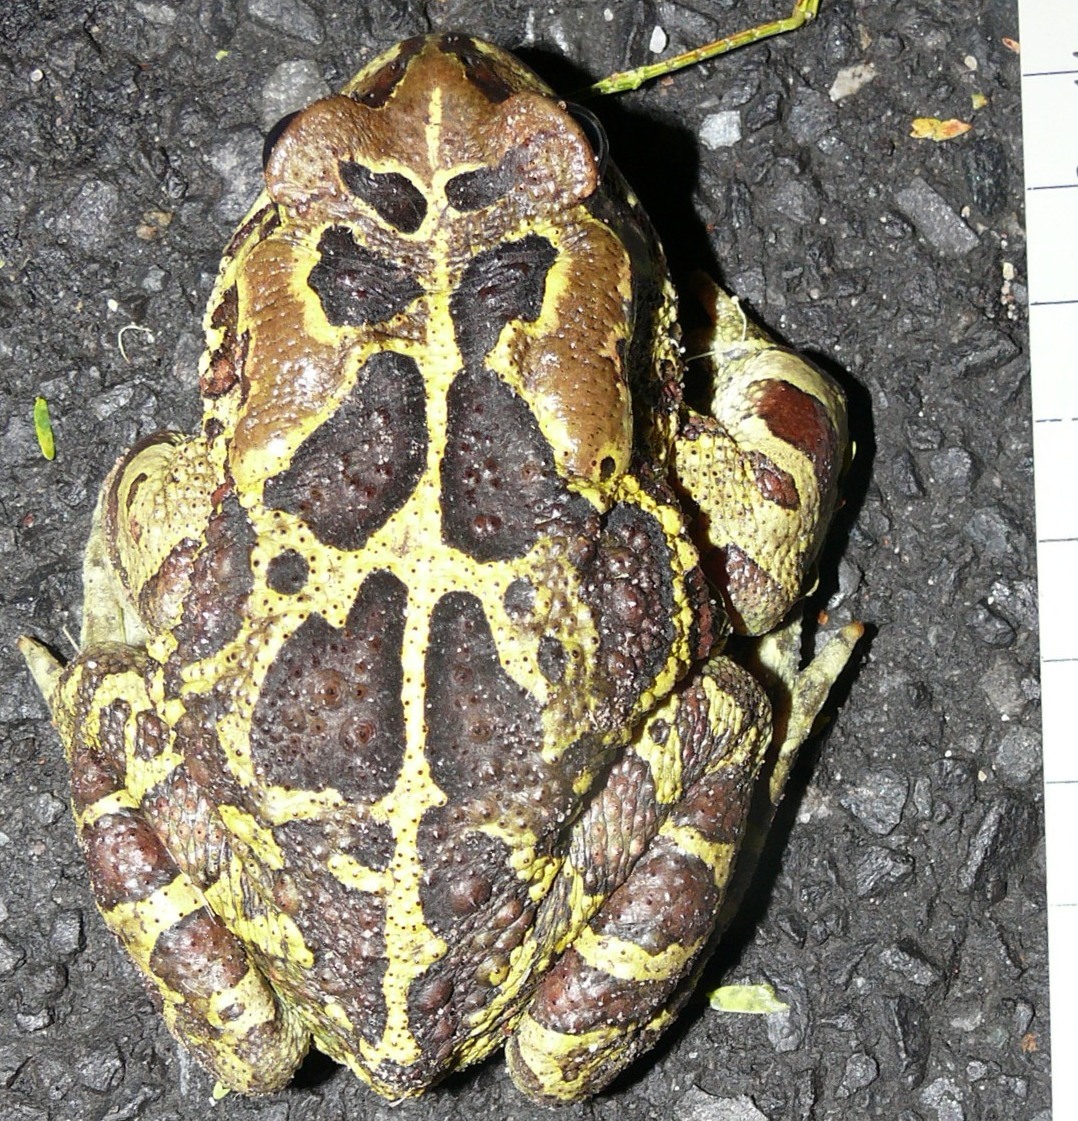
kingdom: Animalia
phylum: Chordata
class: Amphibia
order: Anura
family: Bufonidae
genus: Sclerophrys
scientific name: Sclerophrys pantherina
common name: Panther toad
